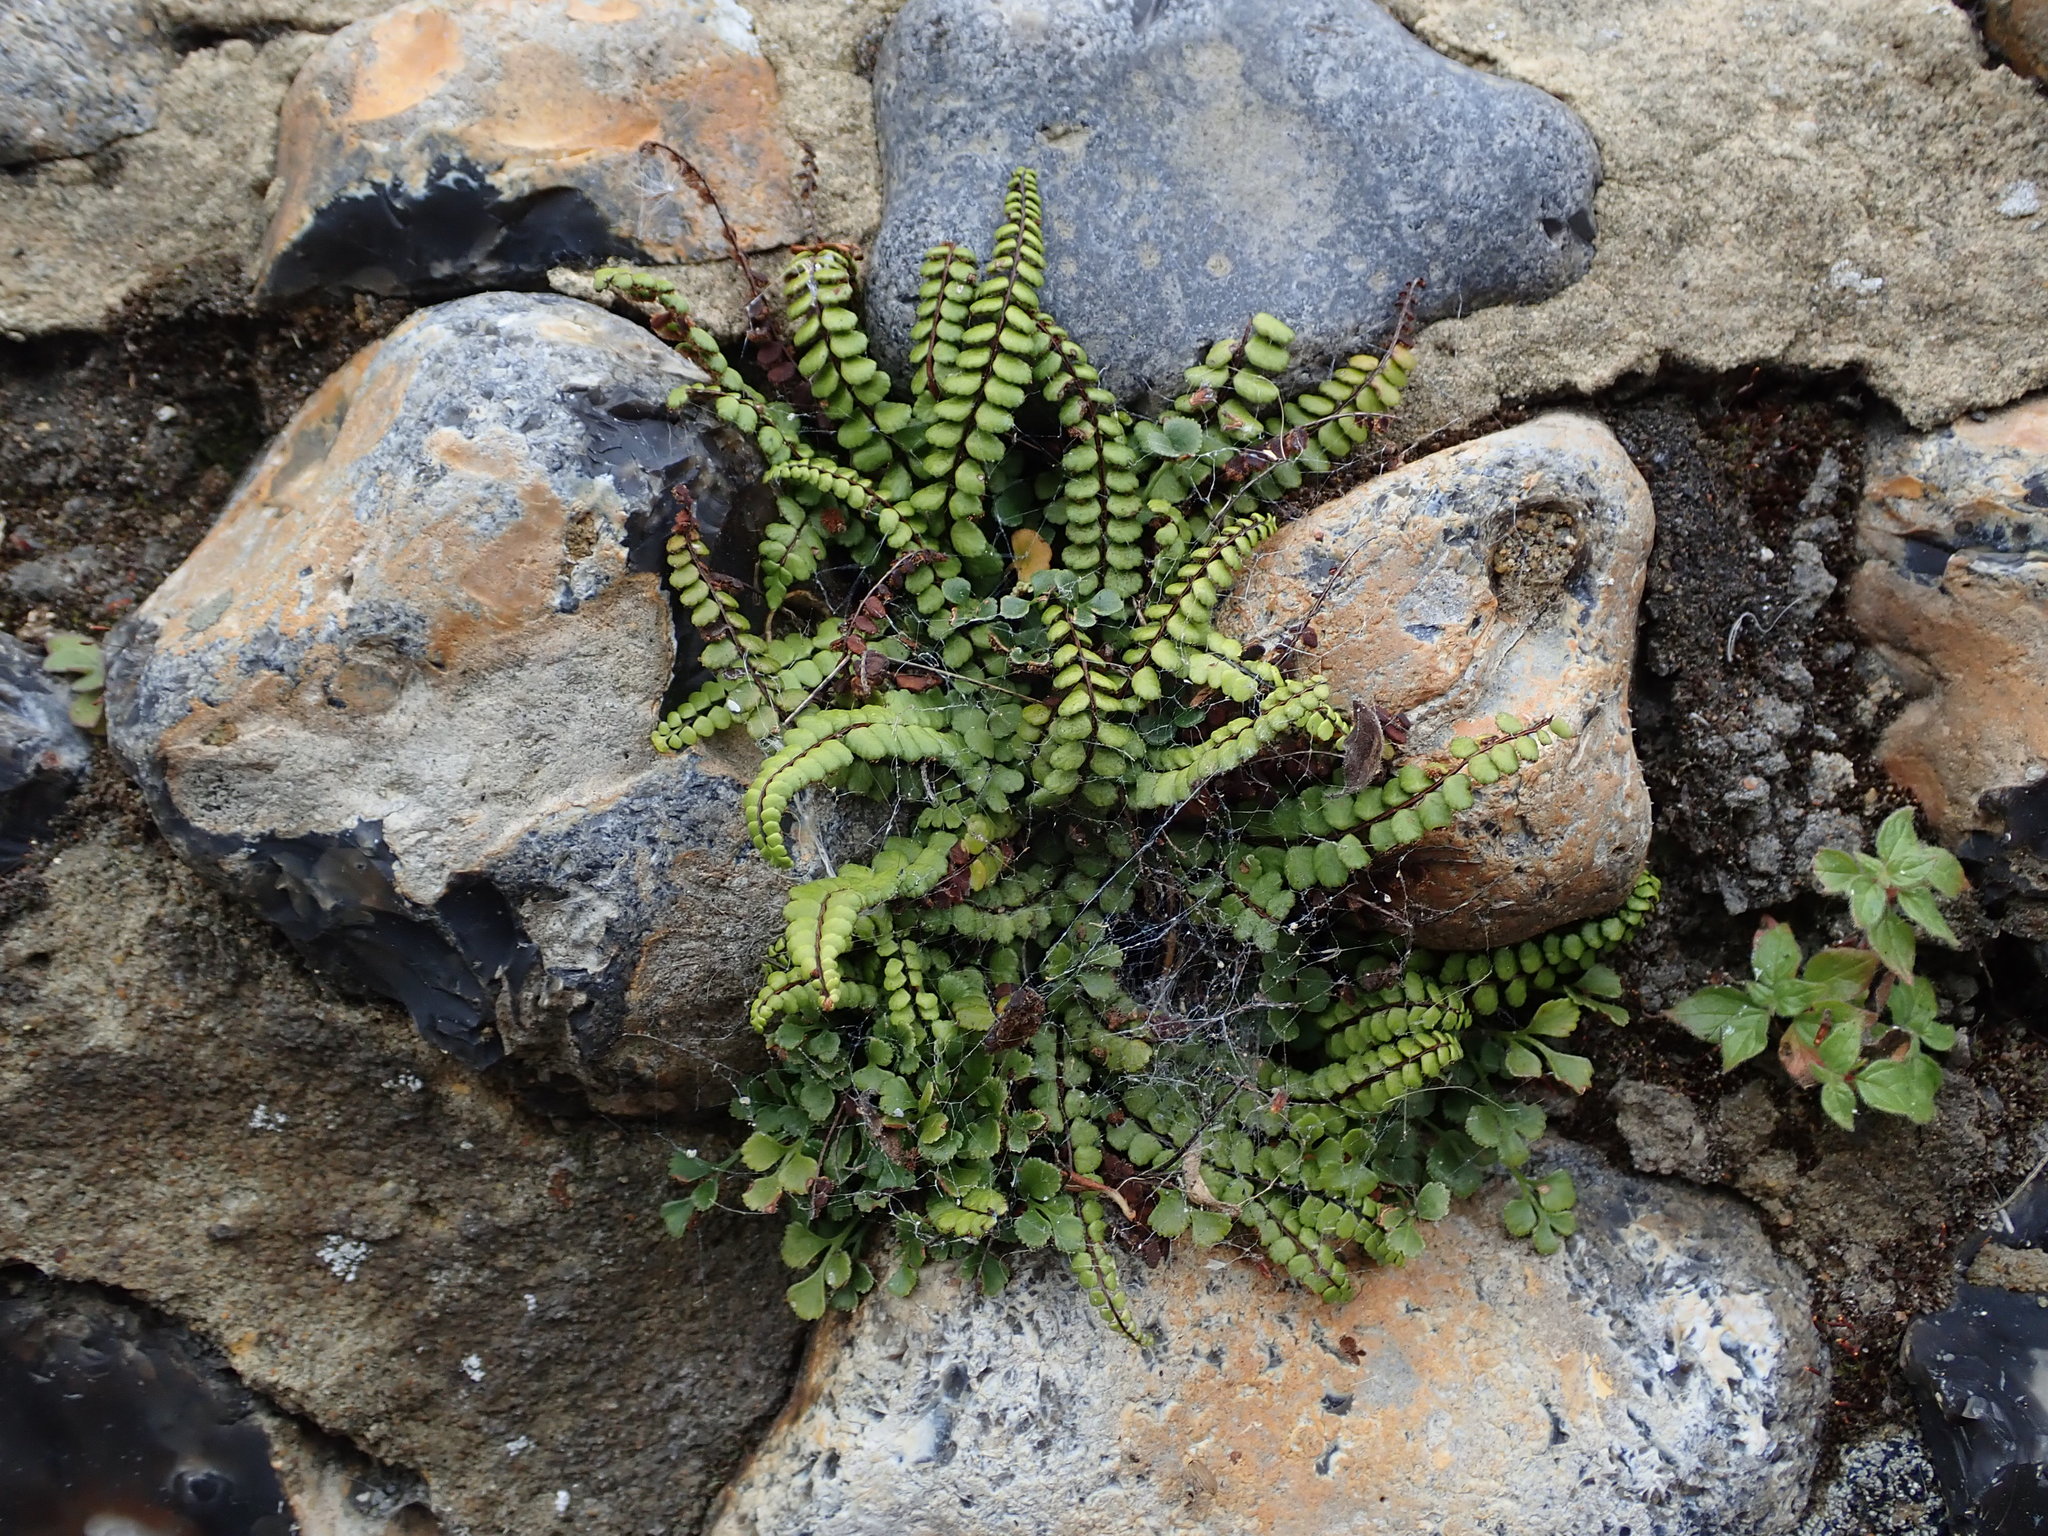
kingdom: Plantae
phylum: Tracheophyta
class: Polypodiopsida
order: Polypodiales
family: Aspleniaceae
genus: Asplenium
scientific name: Asplenium trichomanes
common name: Maidenhair spleenwort
